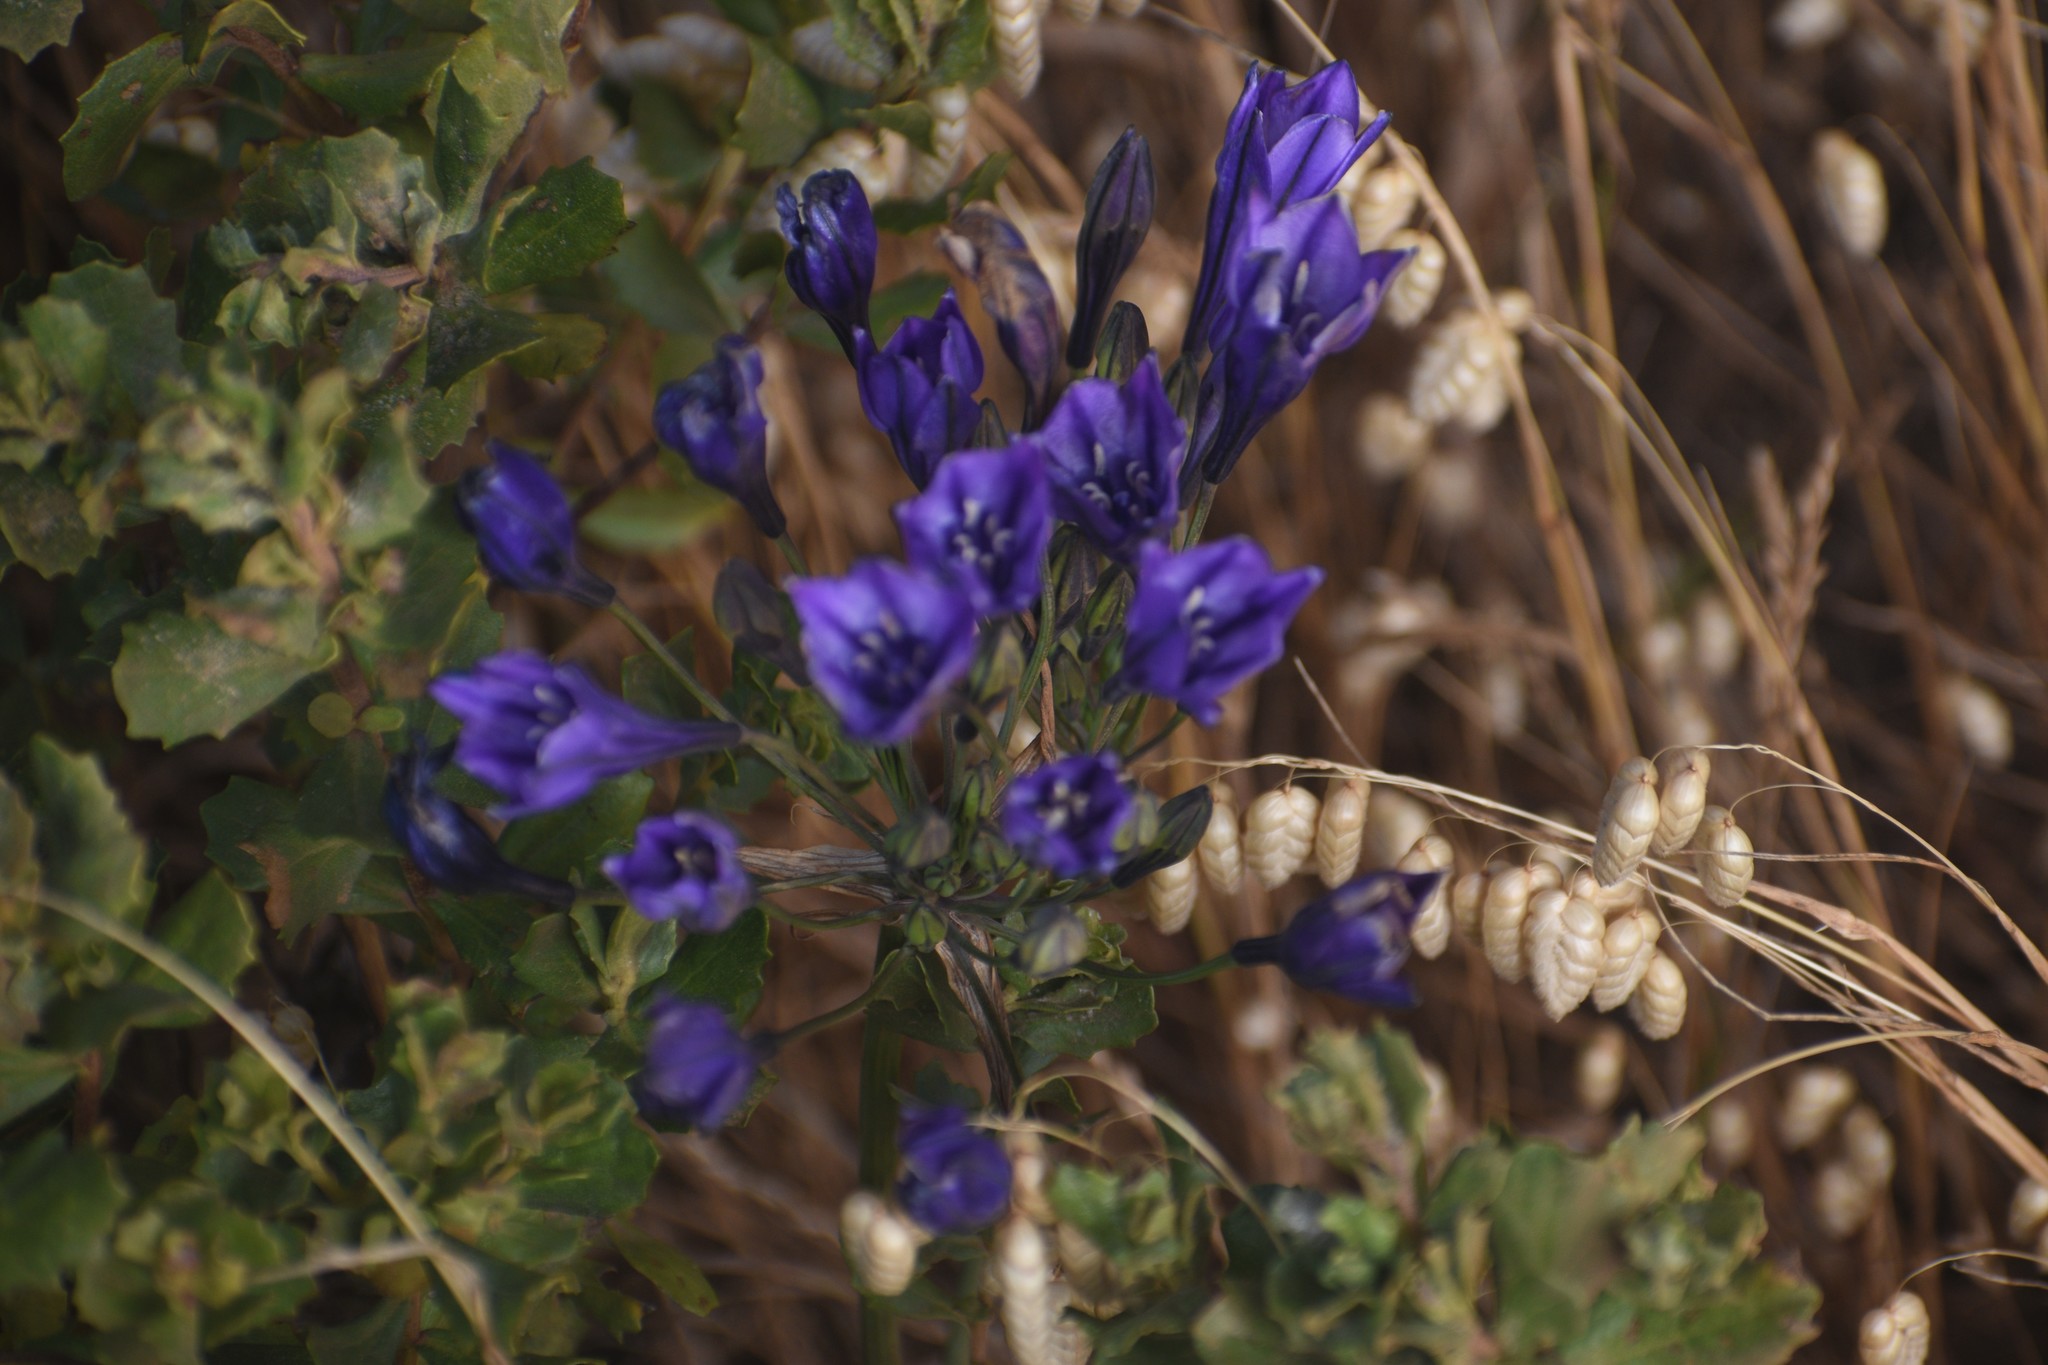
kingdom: Plantae
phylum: Tracheophyta
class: Liliopsida
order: Asparagales
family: Asparagaceae
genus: Triteleia
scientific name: Triteleia laxa
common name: Triplet-lily
